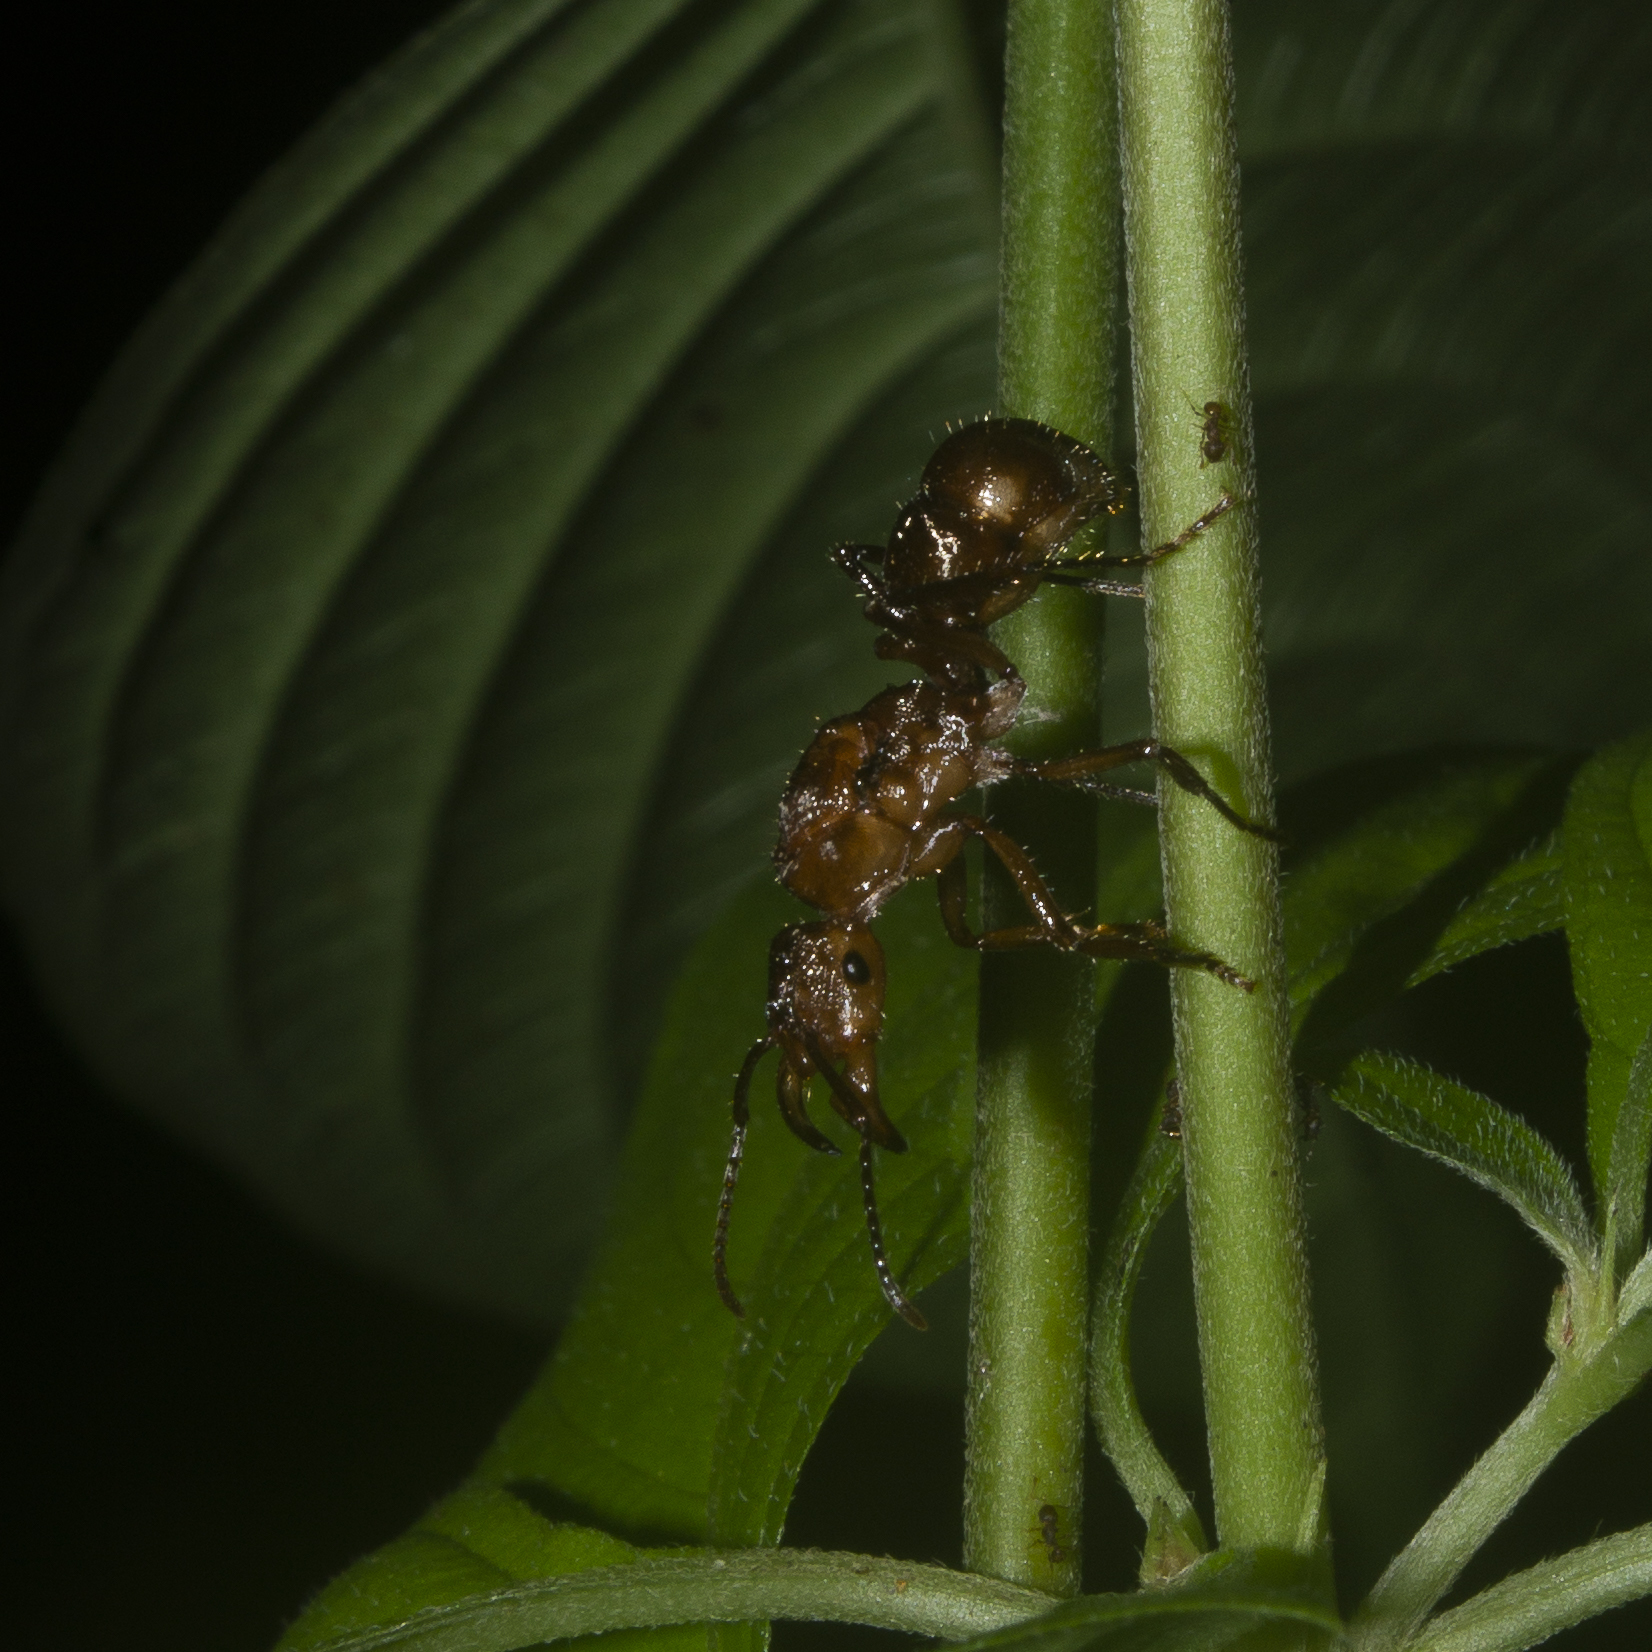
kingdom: Animalia
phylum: Arthropoda
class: Insecta
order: Hymenoptera
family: Formicidae
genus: Ectatomma
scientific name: Ectatomma tuberculatum
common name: Ant
